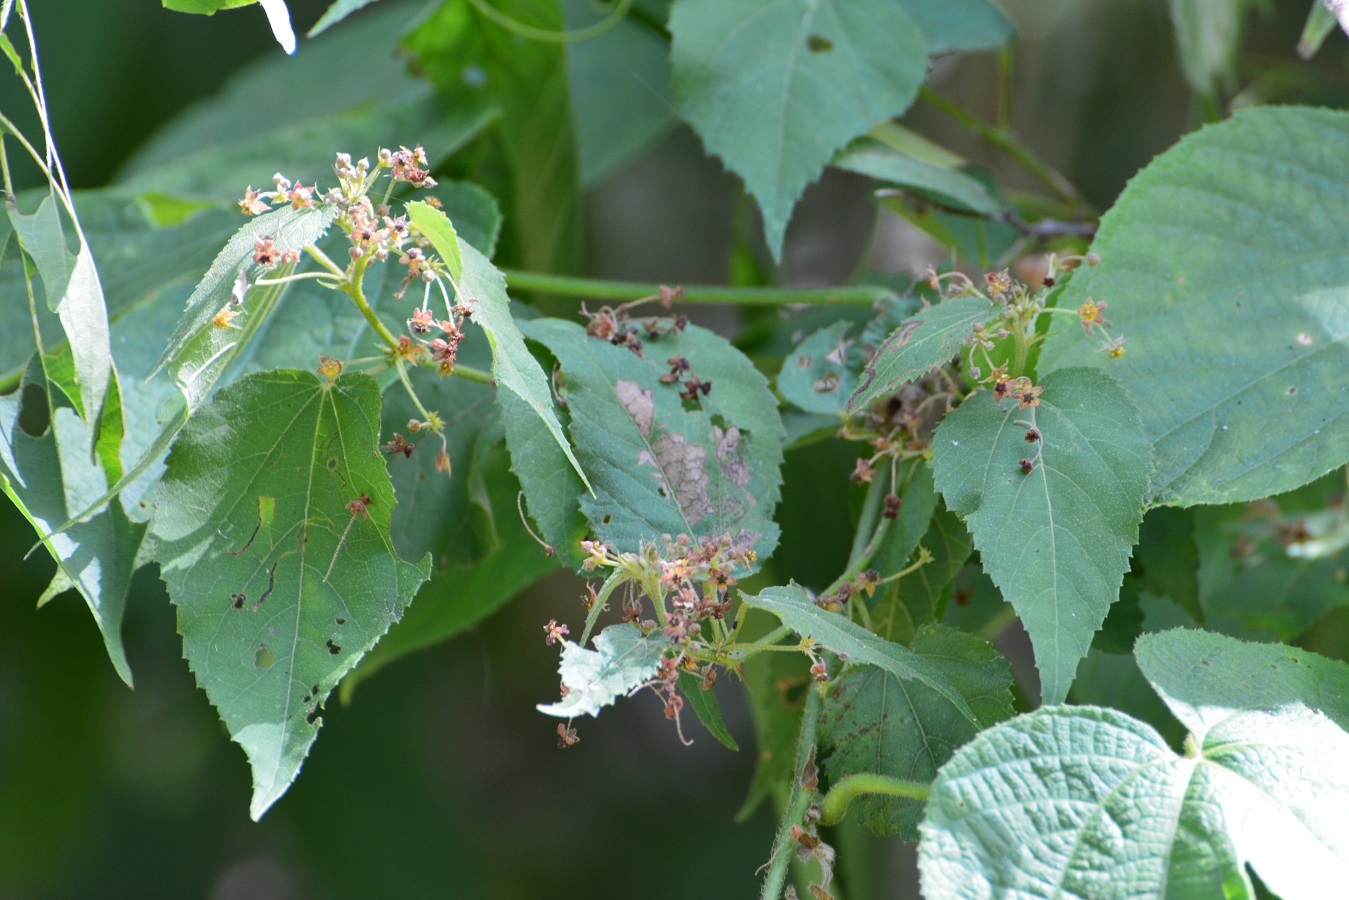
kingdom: Plantae
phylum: Tracheophyta
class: Magnoliopsida
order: Malvales
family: Malvaceae
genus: Ayenia
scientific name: Ayenia micrantha
